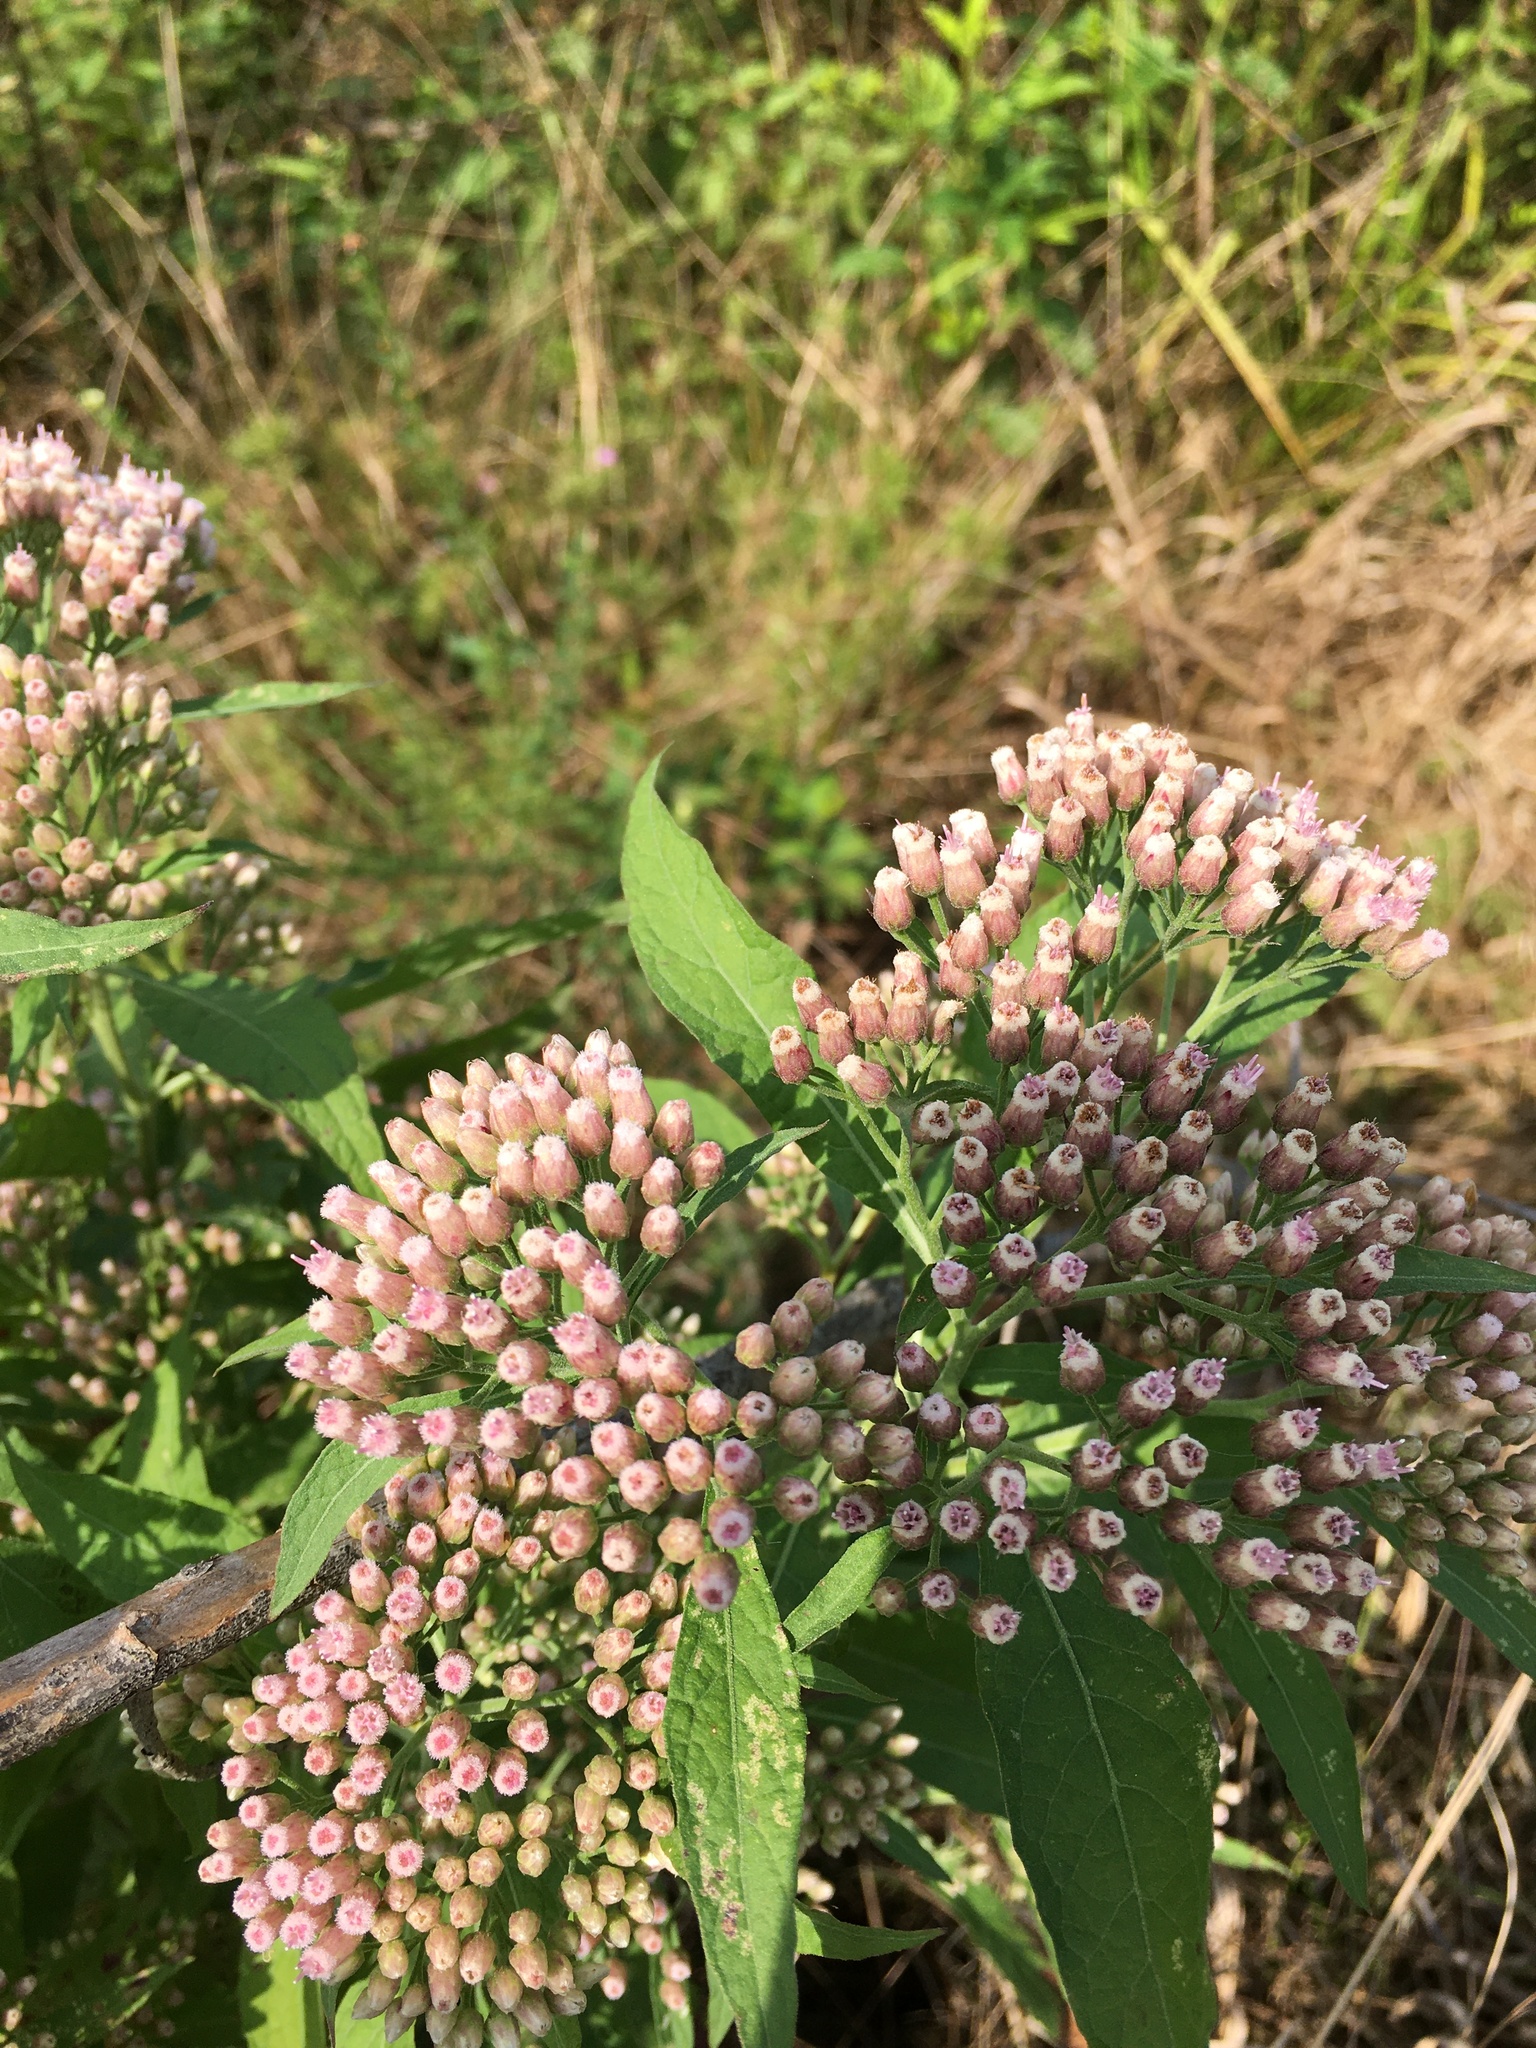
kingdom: Plantae
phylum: Tracheophyta
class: Magnoliopsida
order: Asterales
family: Asteraceae
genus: Pluchea
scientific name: Pluchea camphorata
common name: Camphor pluchea
